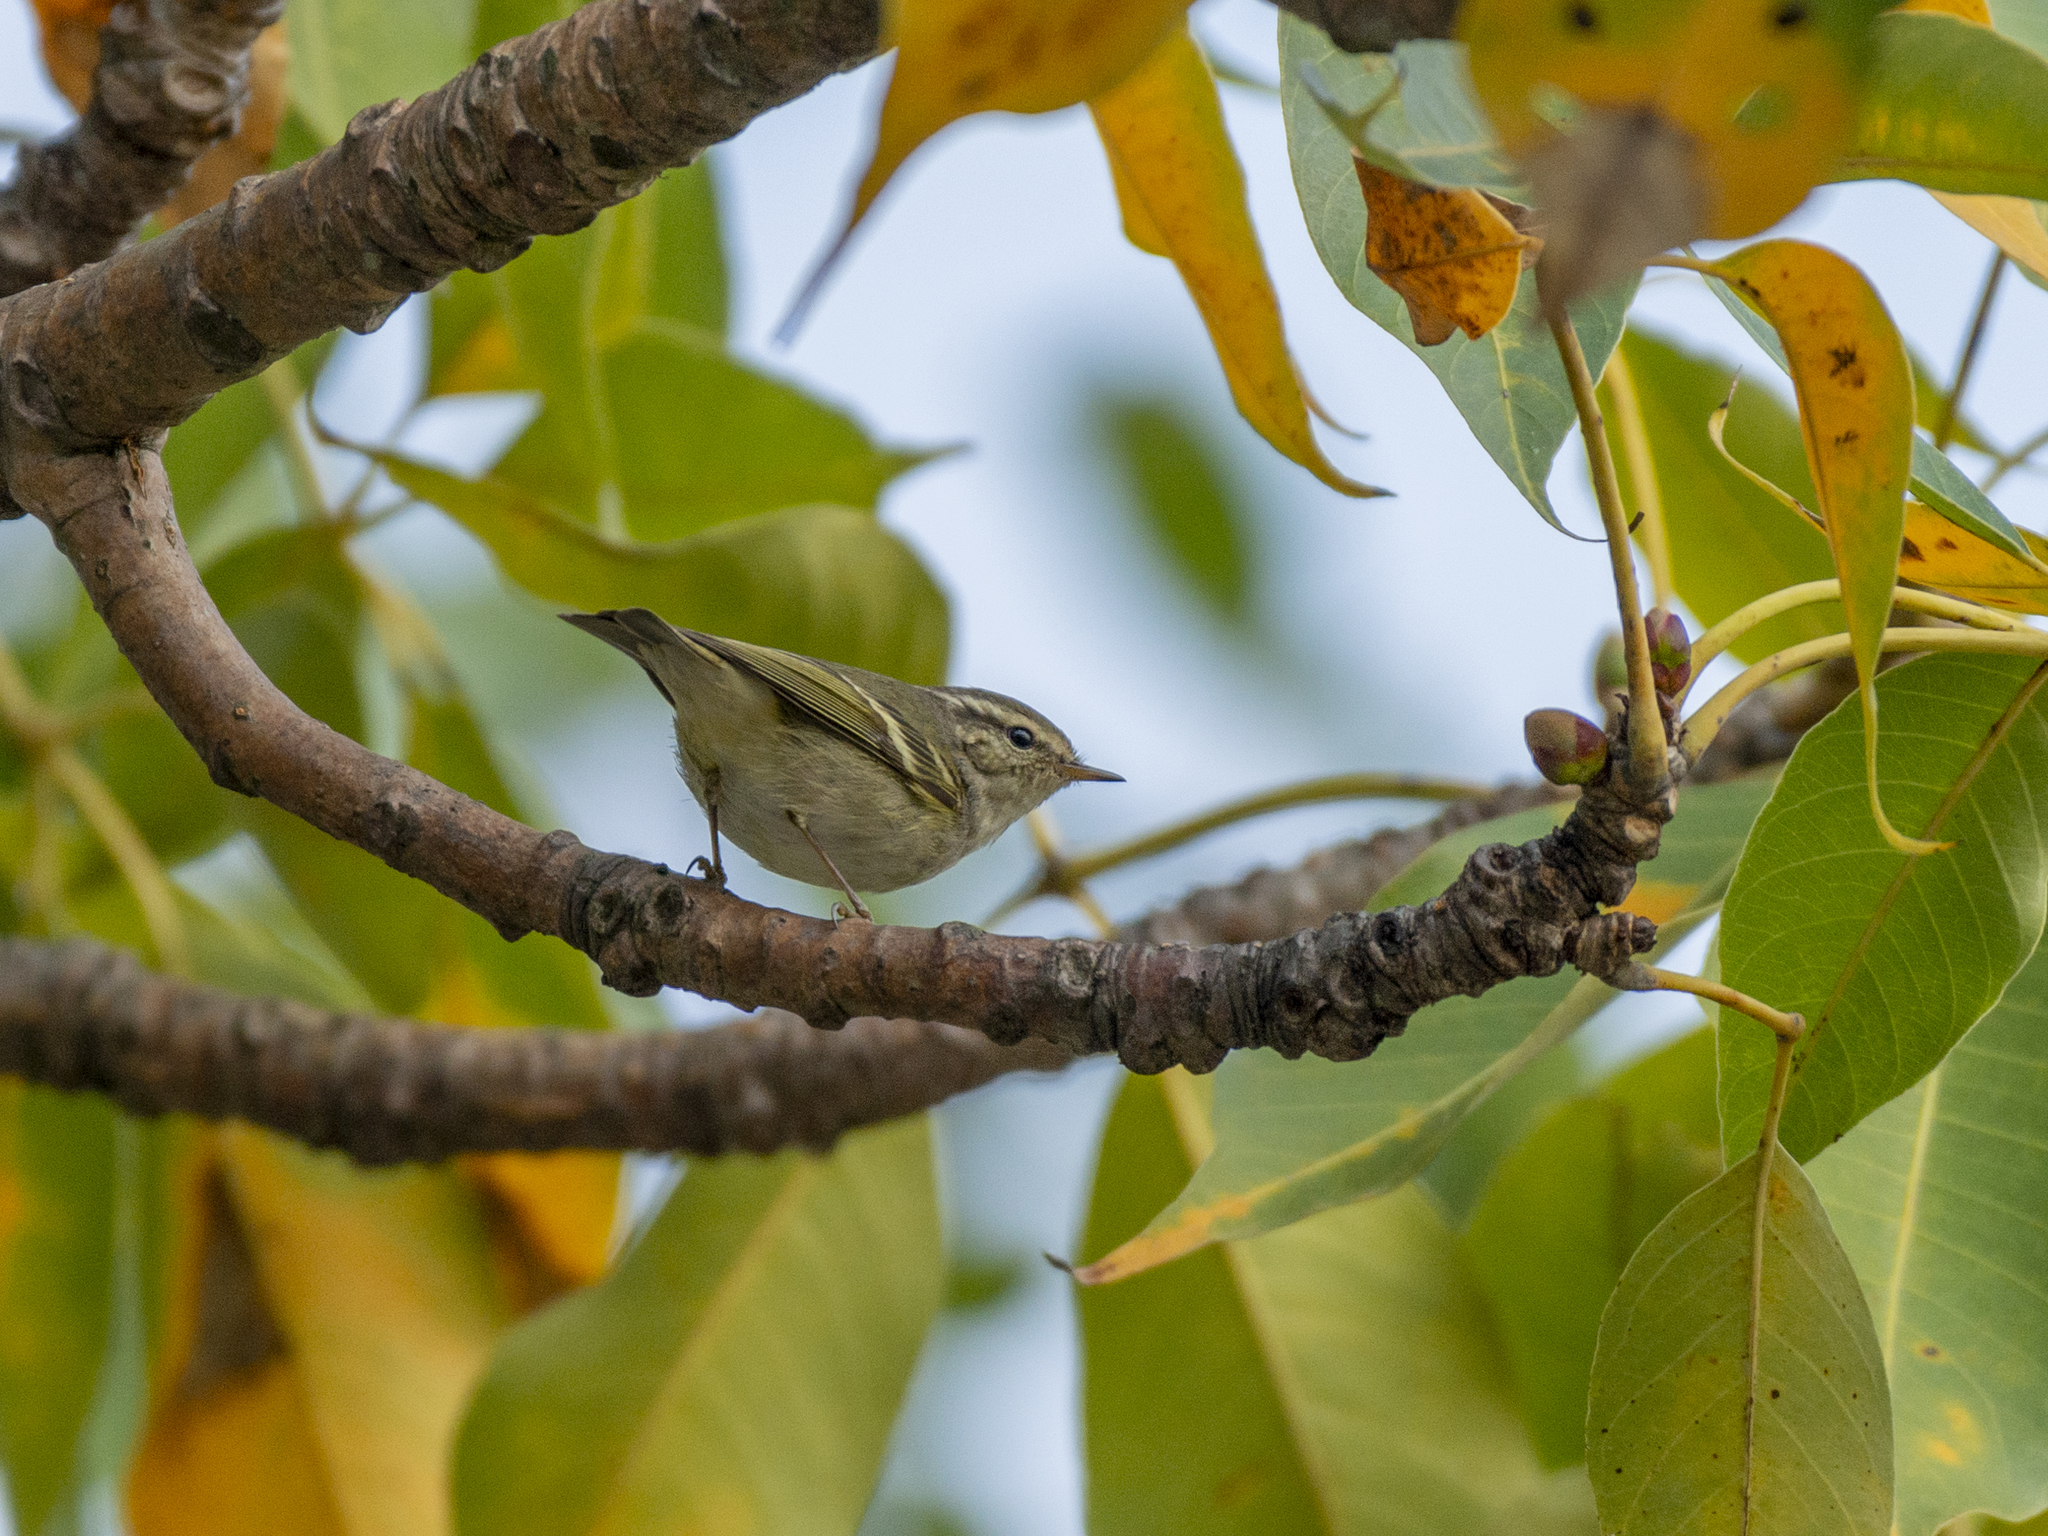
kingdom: Animalia
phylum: Chordata
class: Aves
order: Passeriformes
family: Phylloscopidae
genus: Phylloscopus
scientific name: Phylloscopus inornatus
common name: Yellow-browed warbler
